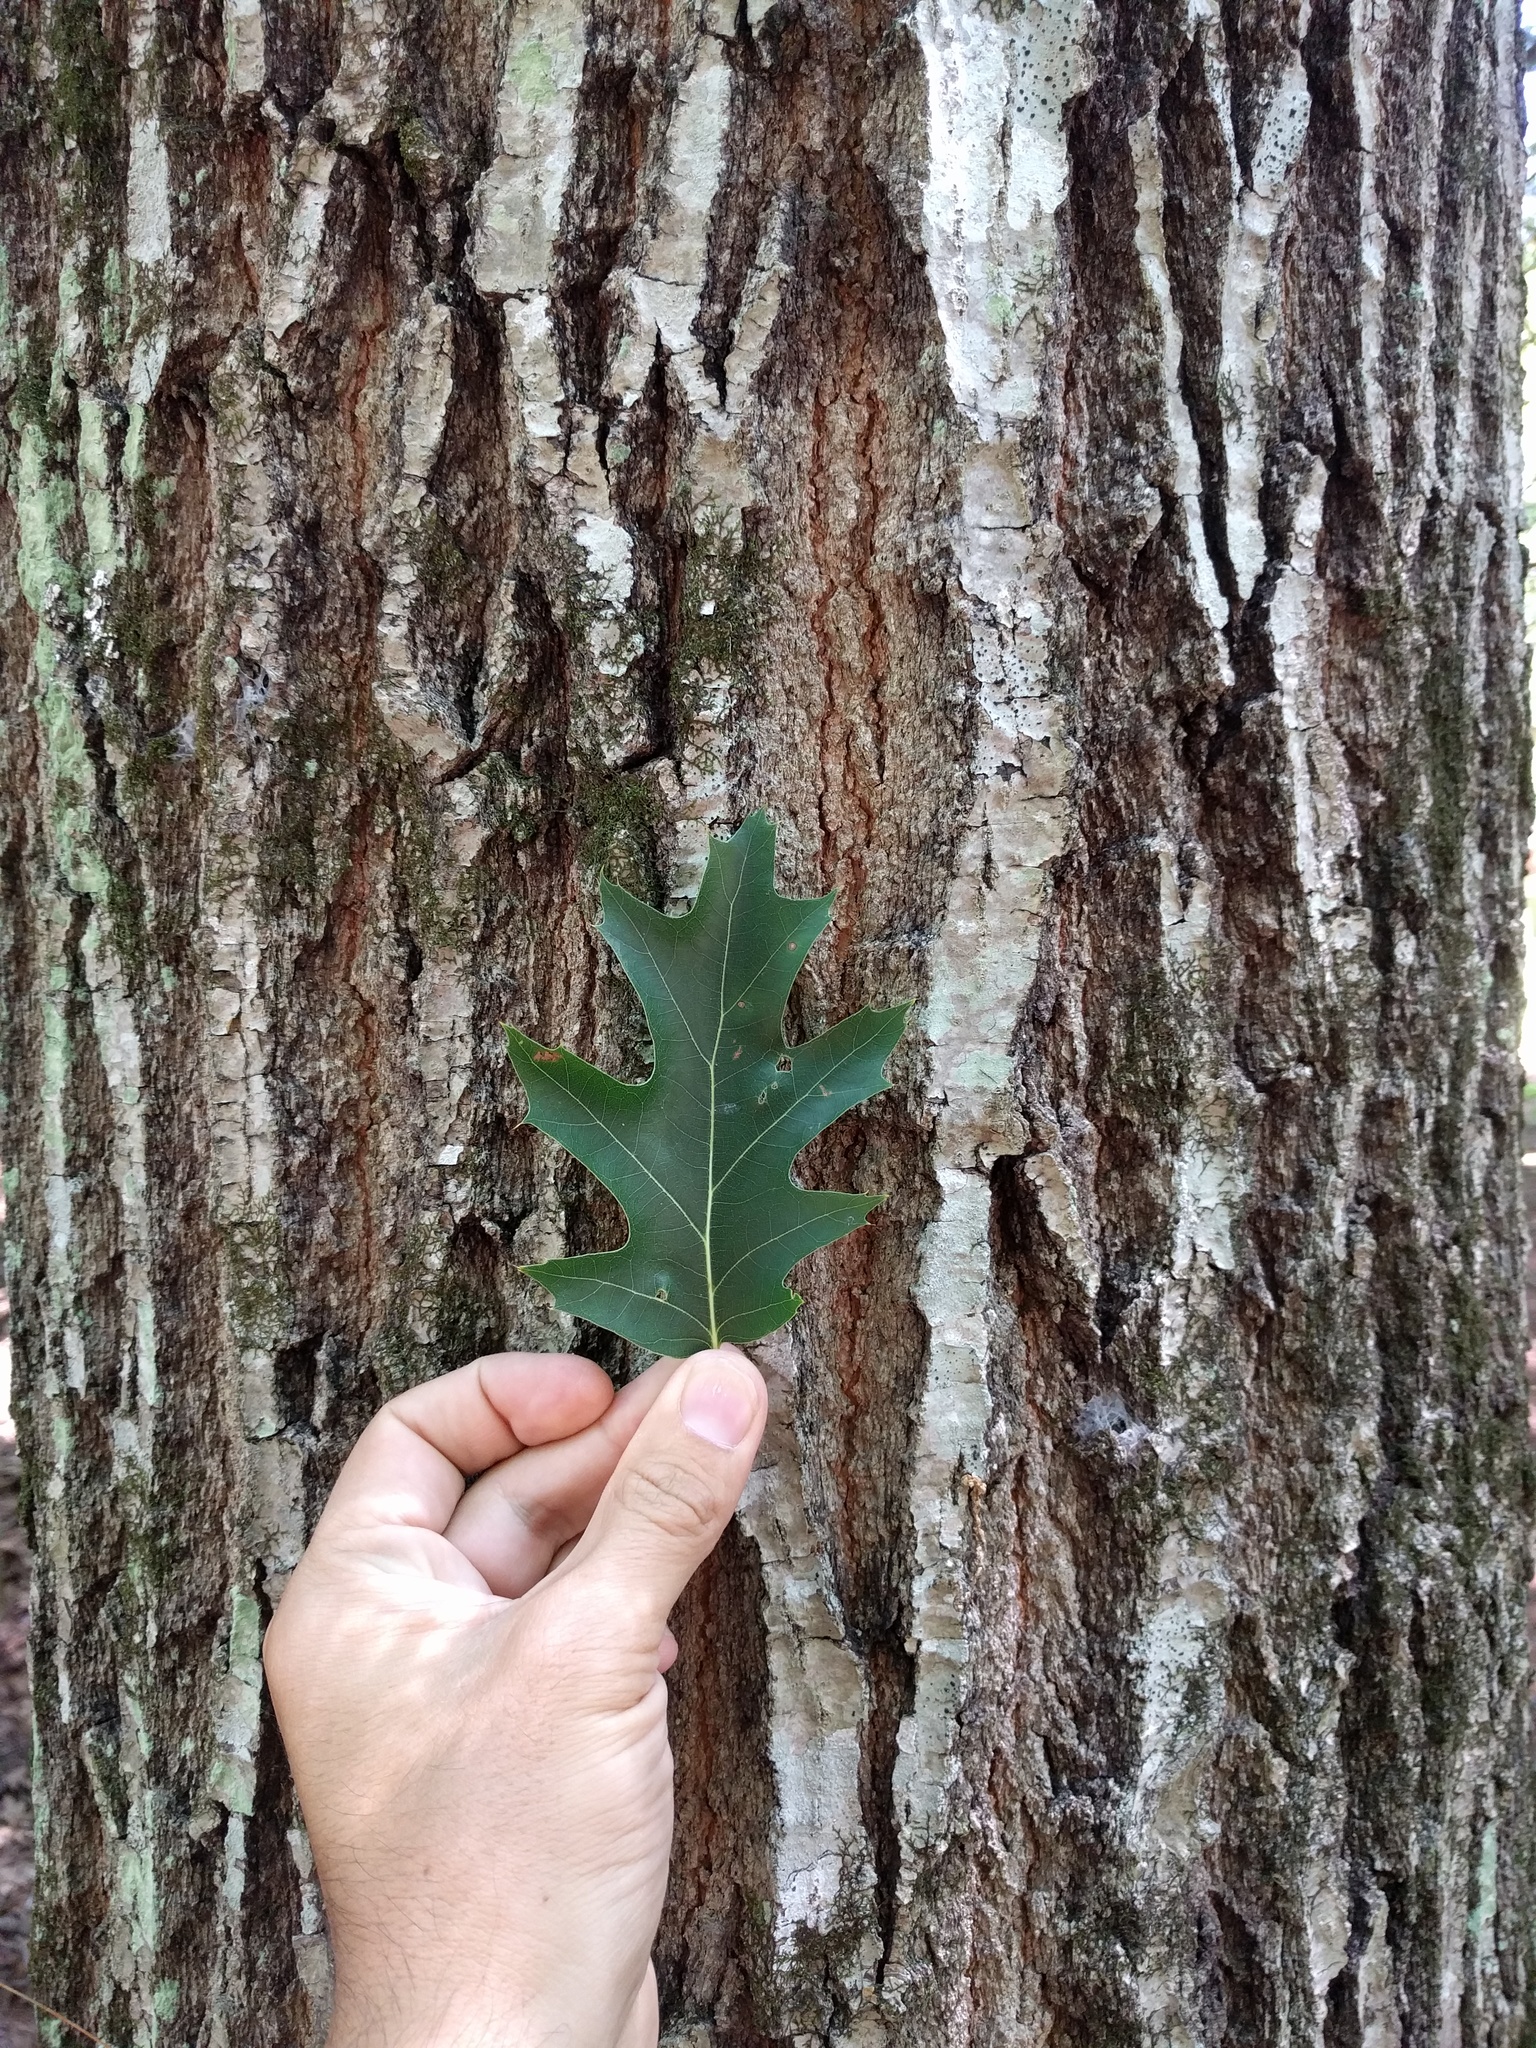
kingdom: Plantae
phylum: Tracheophyta
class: Magnoliopsida
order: Fagales
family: Fagaceae
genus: Quercus
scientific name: Quercus rubra
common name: Red oak
